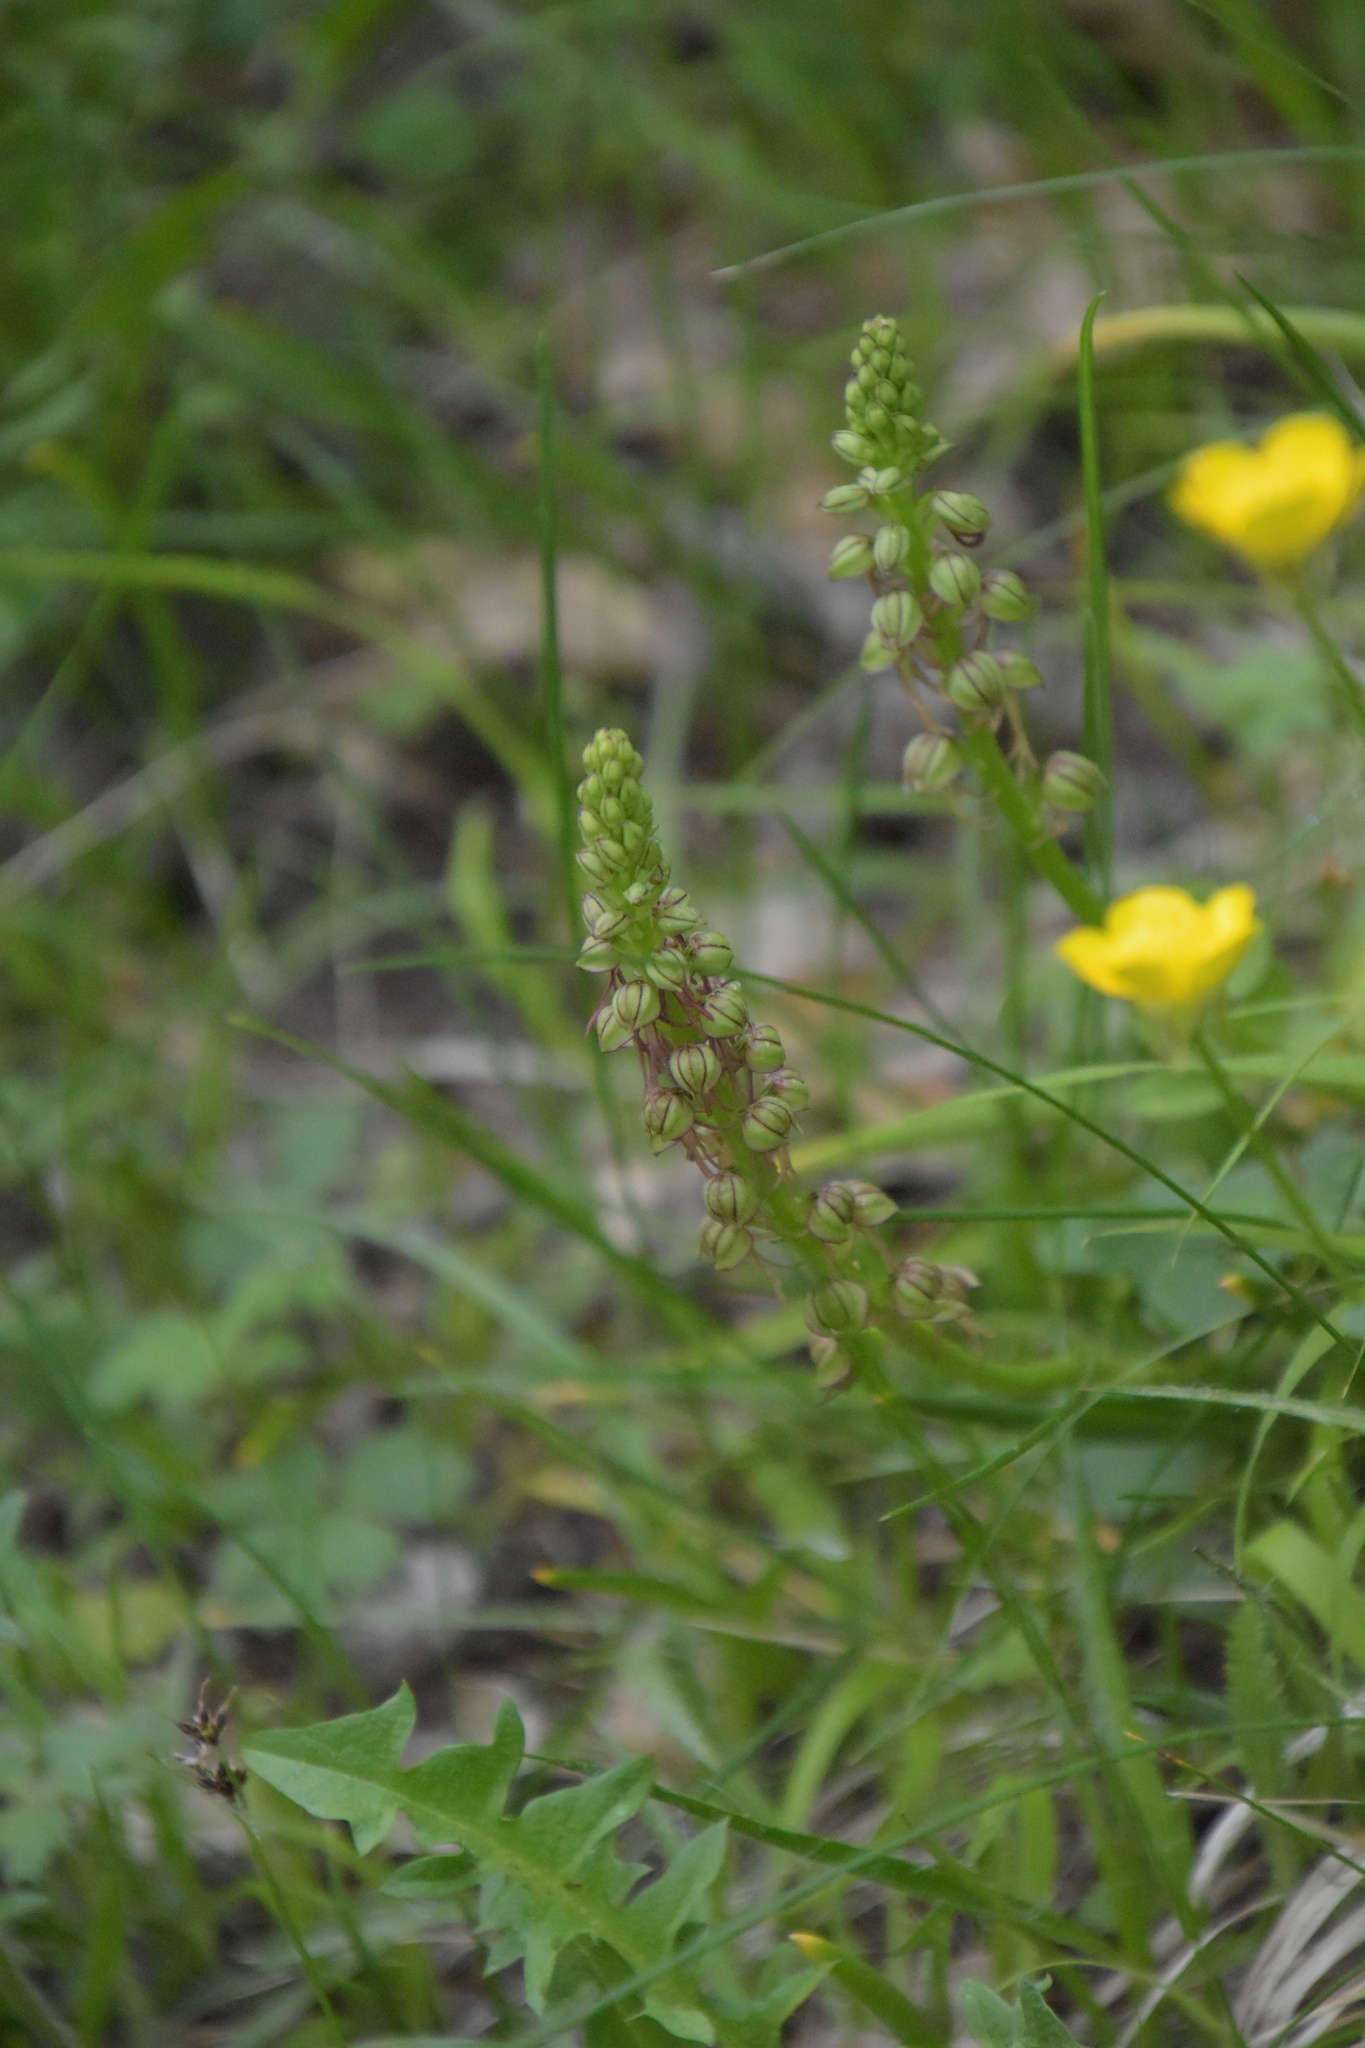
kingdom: Plantae
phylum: Tracheophyta
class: Liliopsida
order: Asparagales
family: Orchidaceae
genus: Orchis
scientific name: Orchis anthropophora
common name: Man orchid
